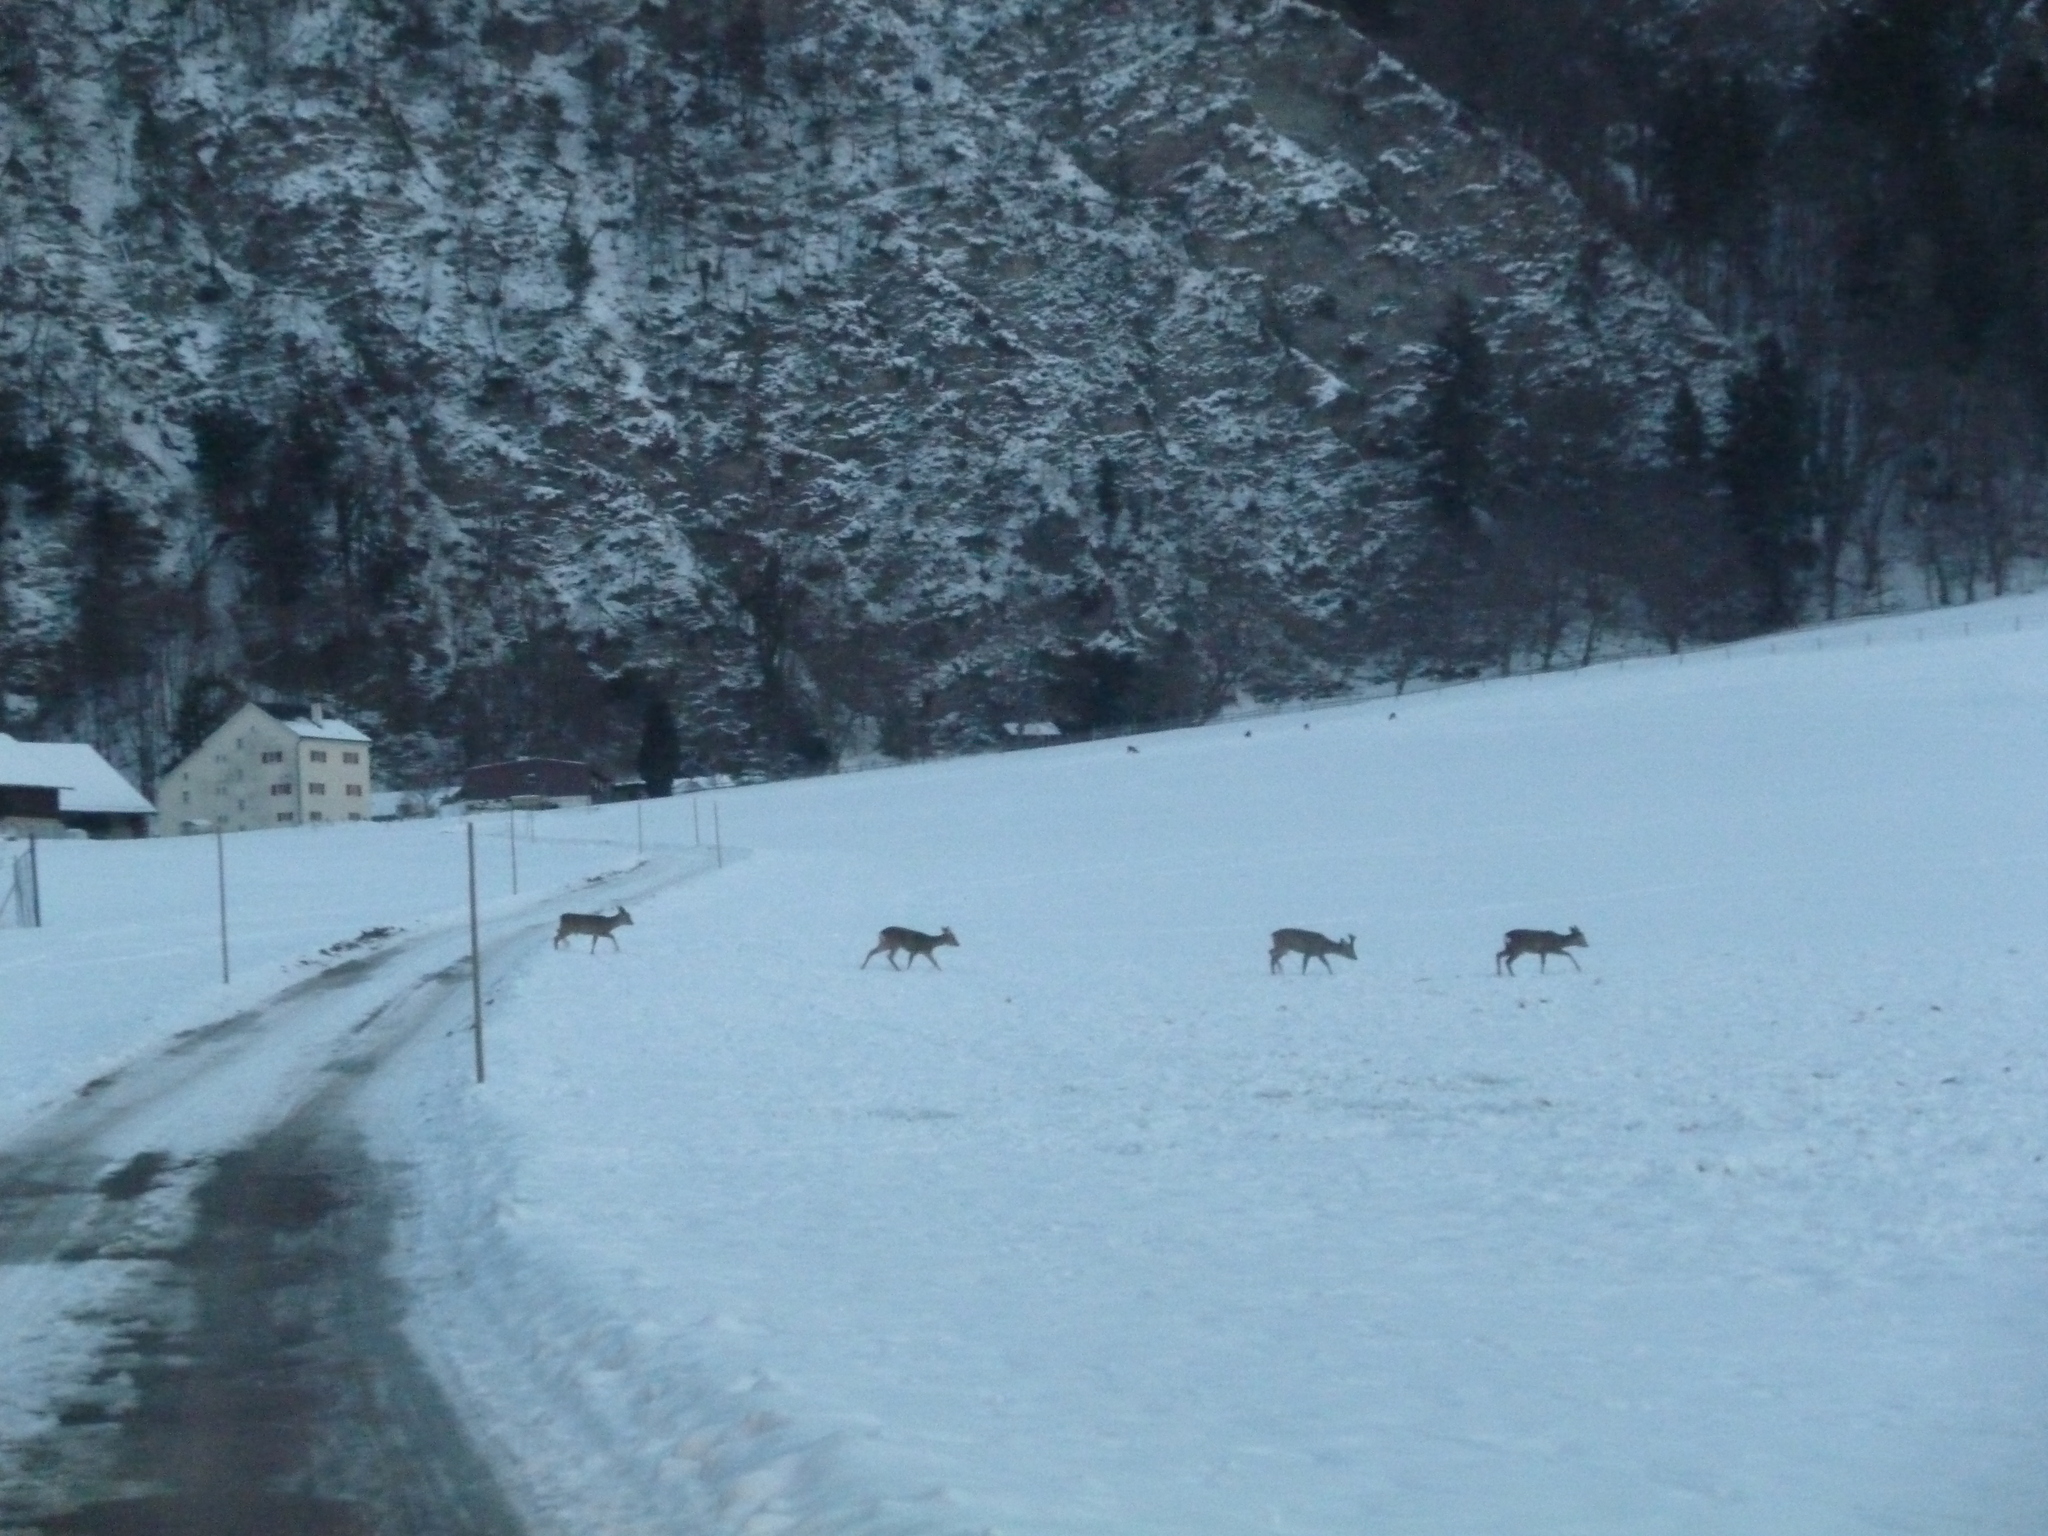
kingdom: Animalia
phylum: Chordata
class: Mammalia
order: Artiodactyla
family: Cervidae
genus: Capreolus
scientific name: Capreolus capreolus
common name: Western roe deer
